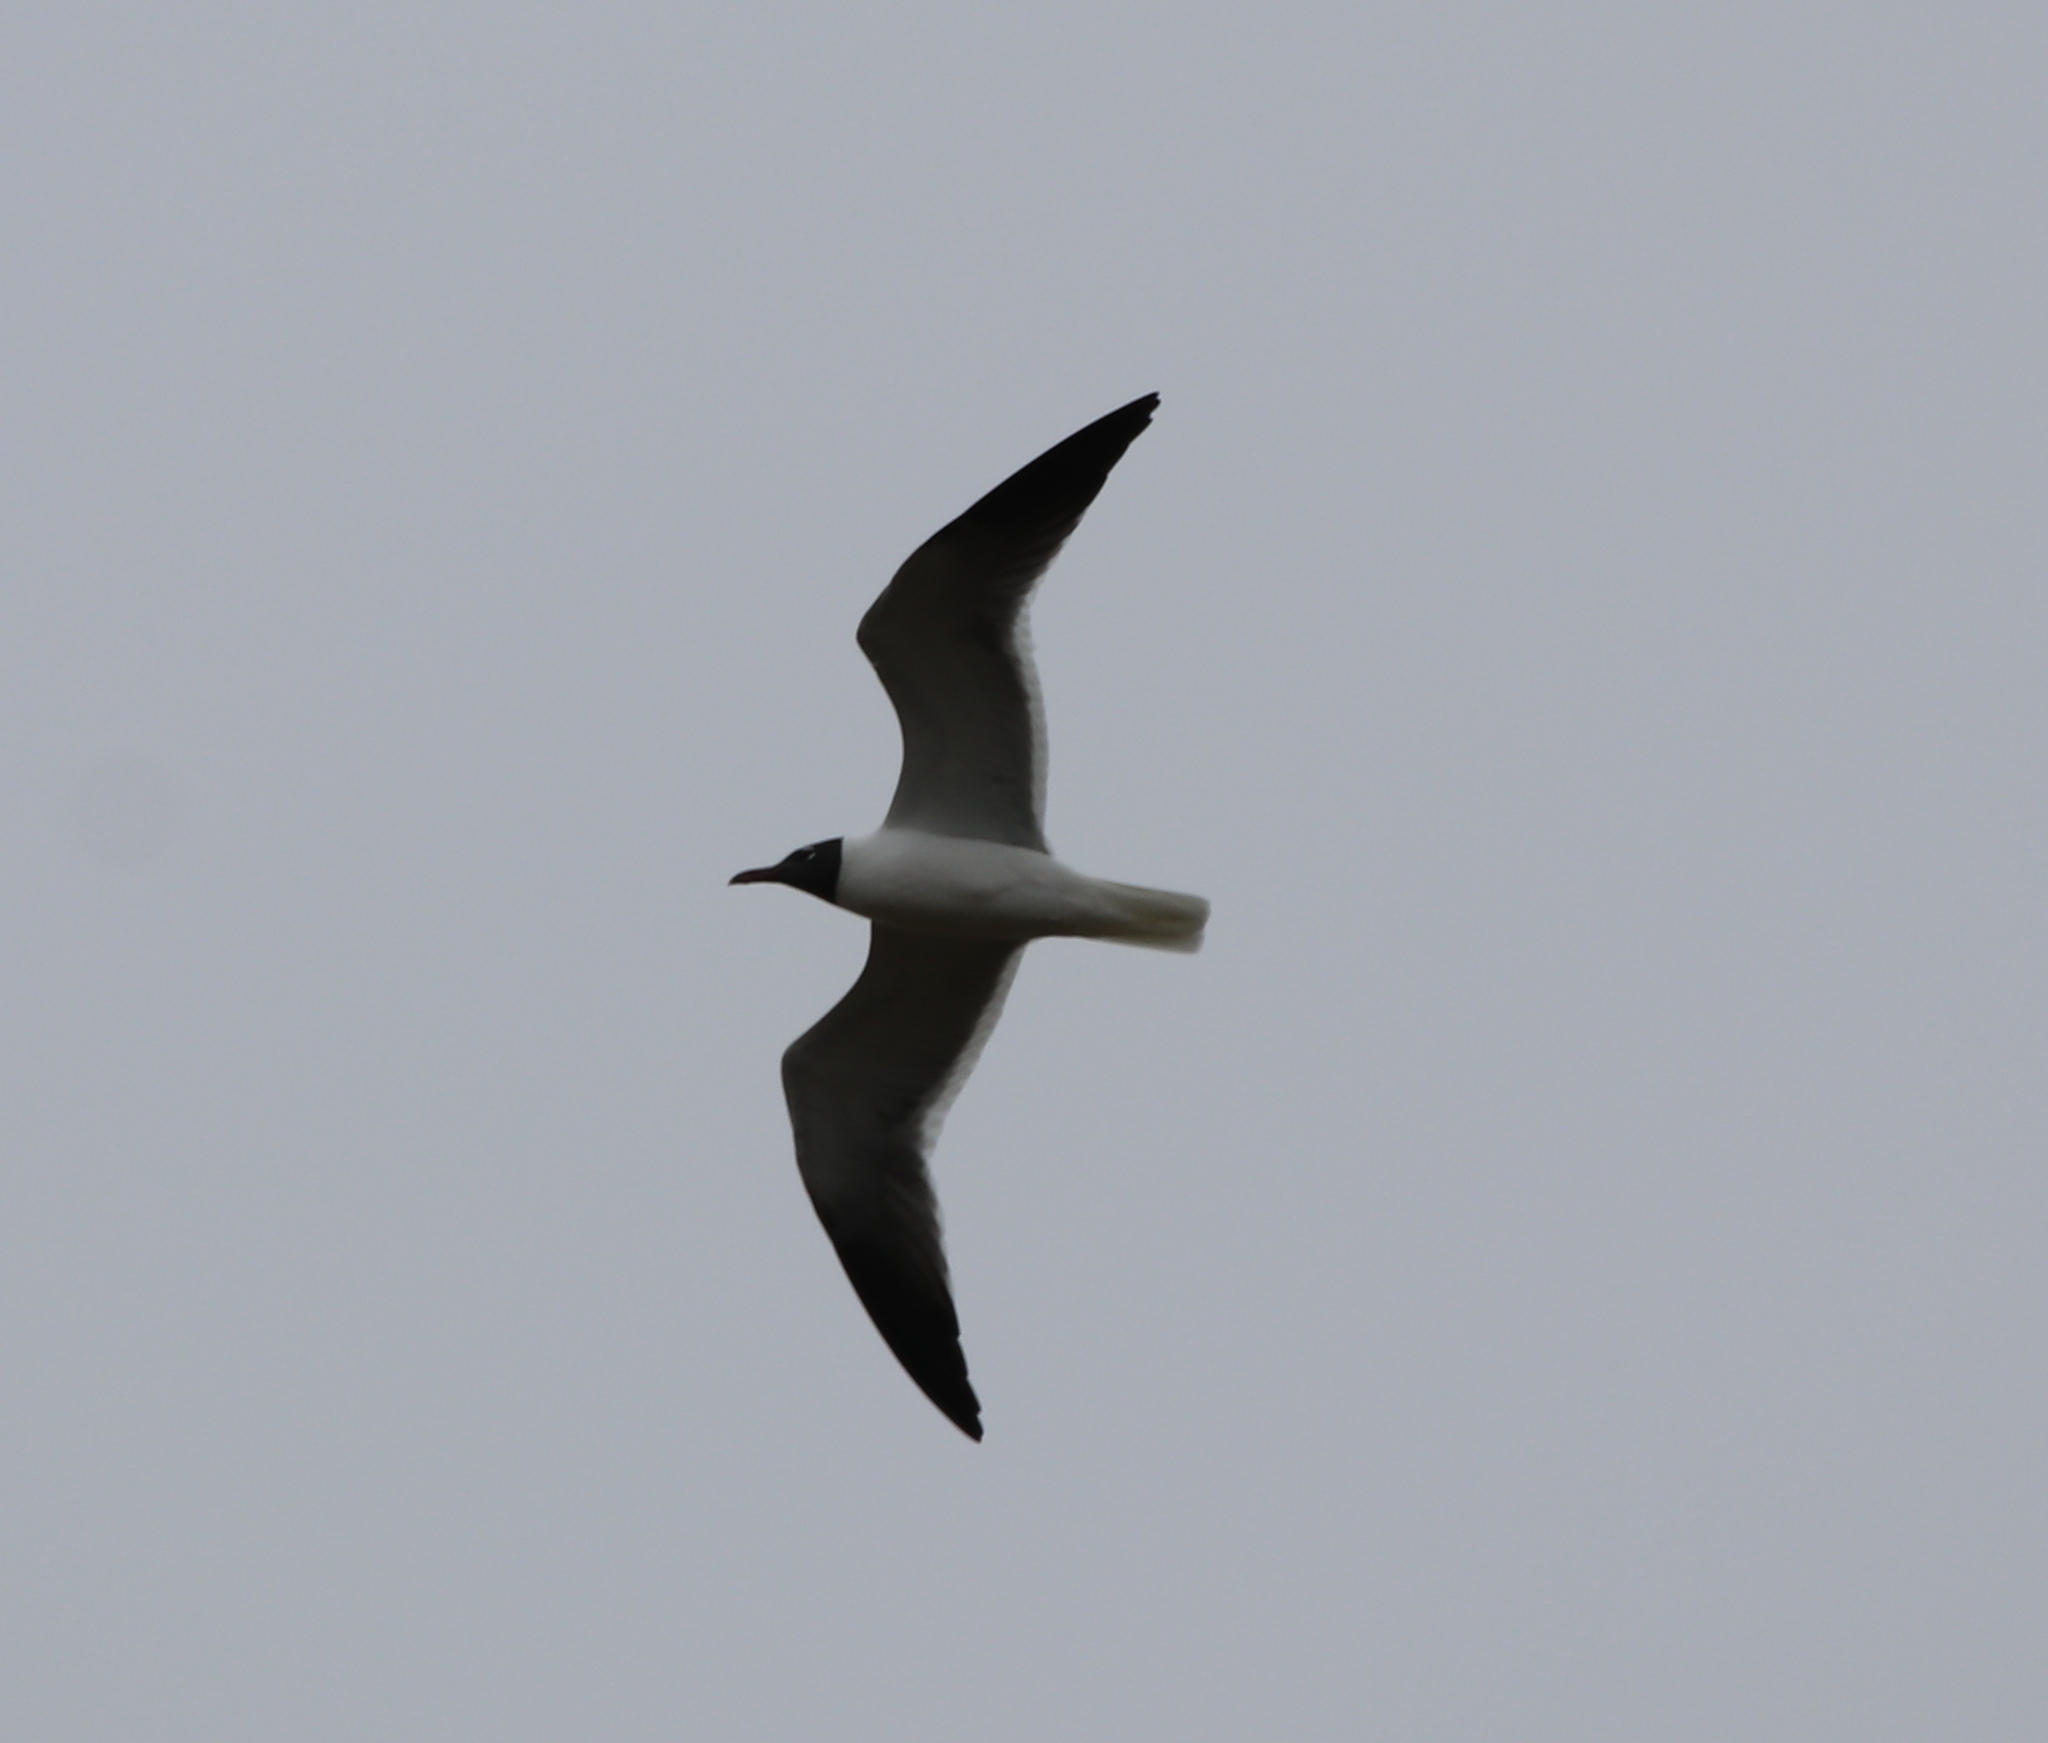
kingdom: Animalia
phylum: Chordata
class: Aves
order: Charadriiformes
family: Laridae
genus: Leucophaeus
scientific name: Leucophaeus atricilla
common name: Laughing gull
